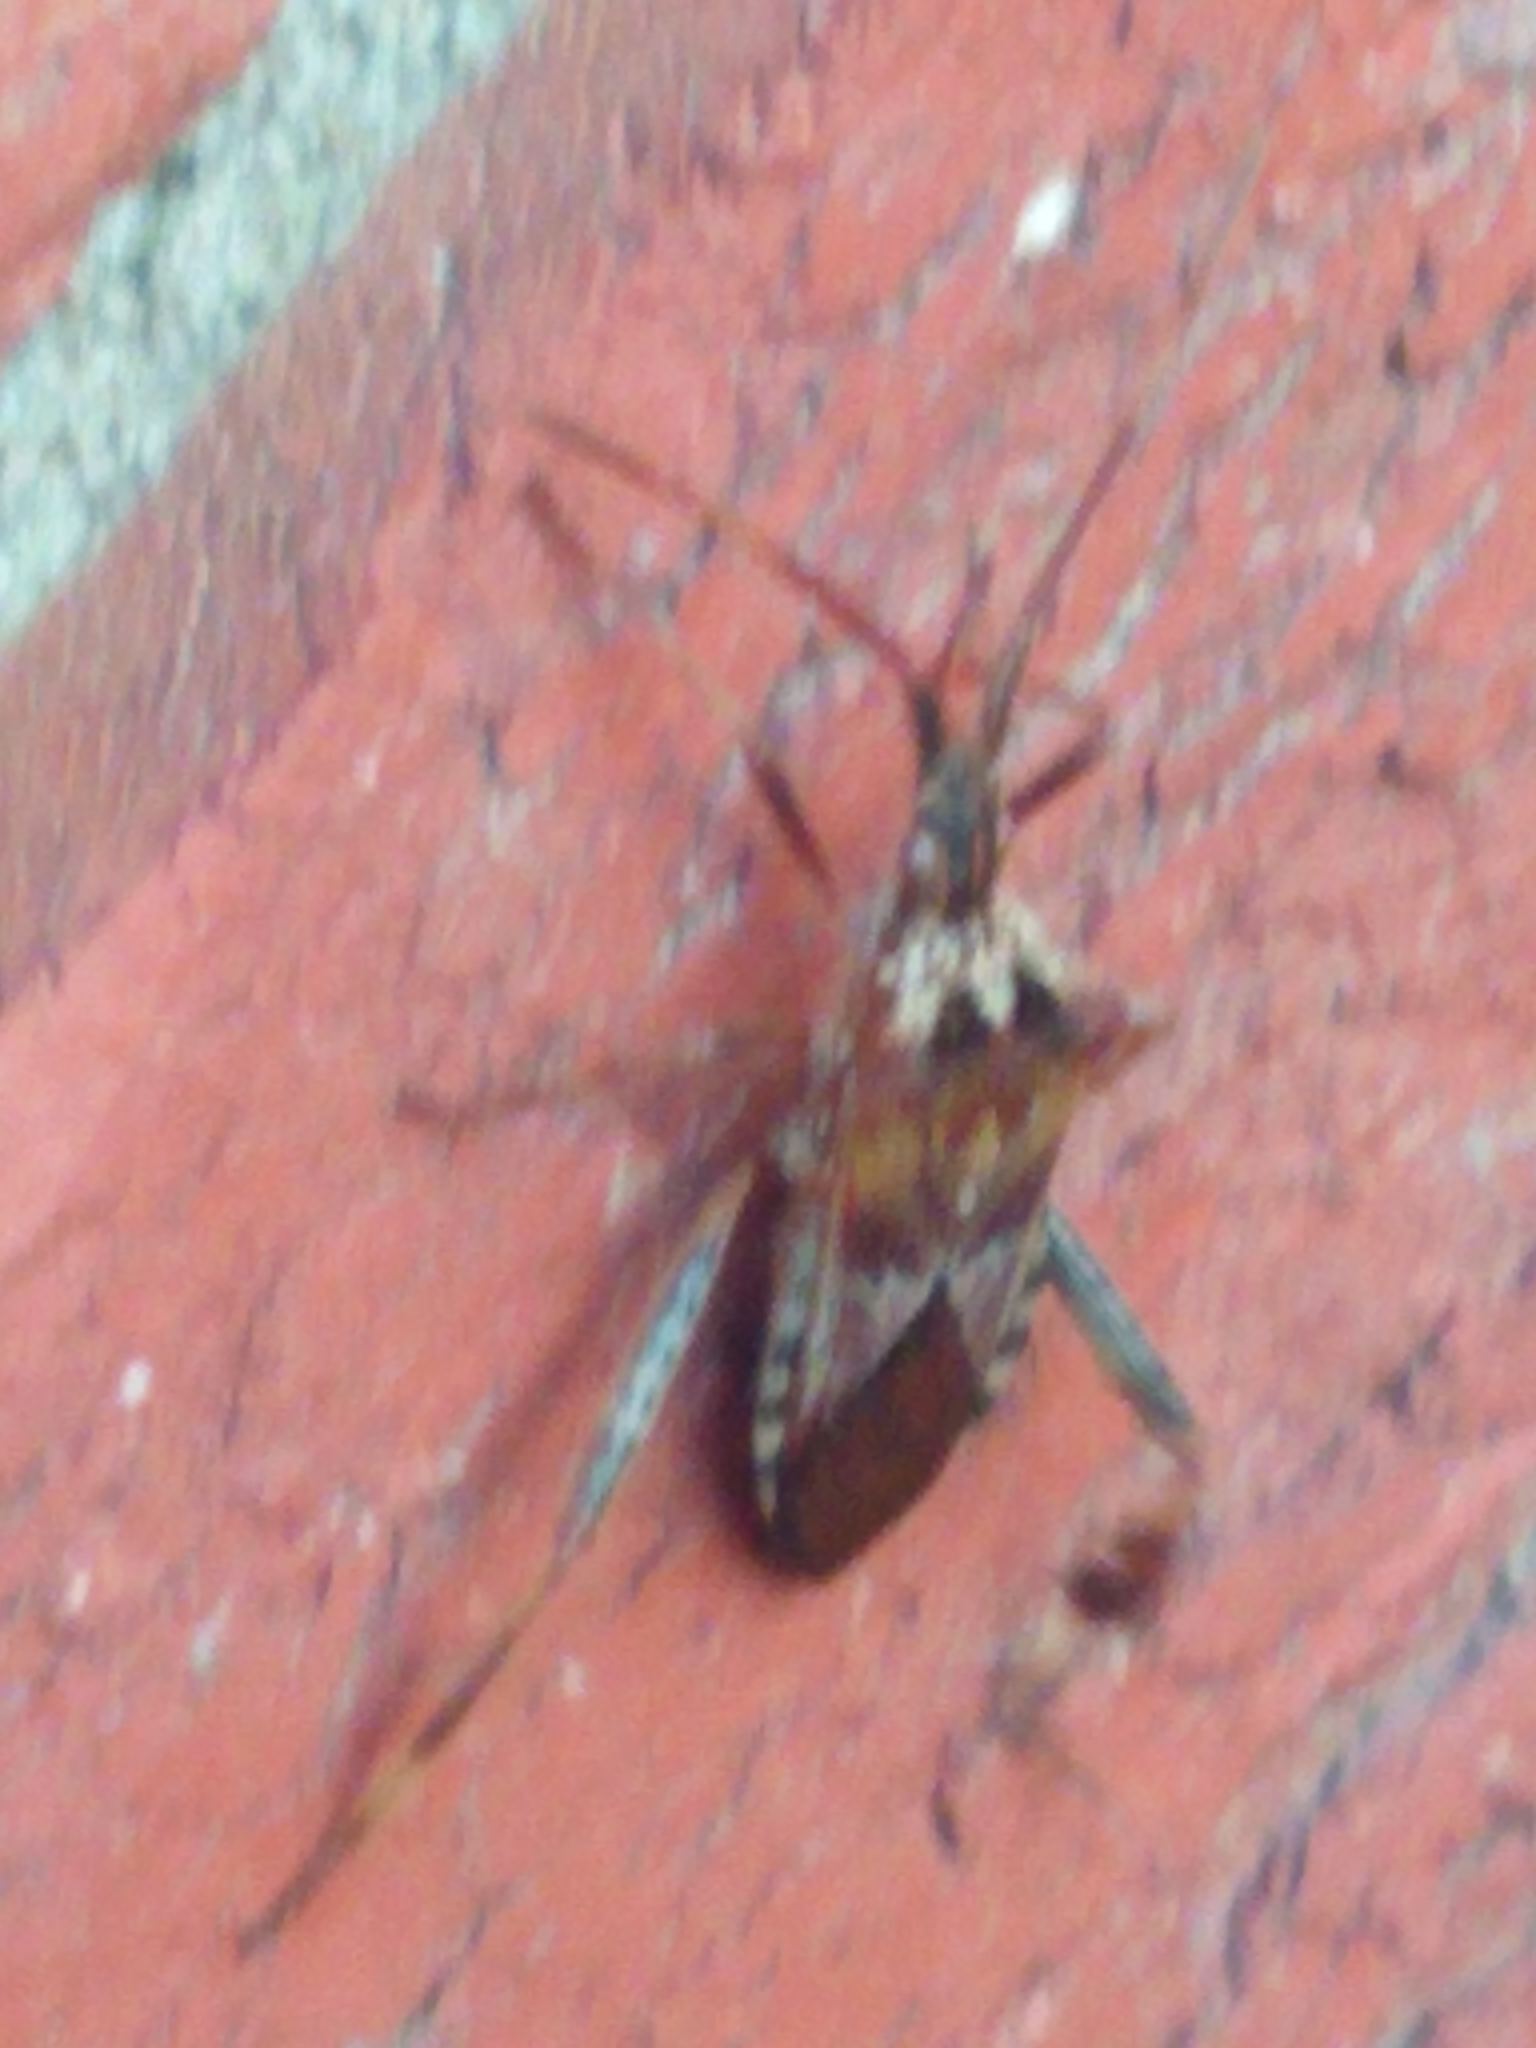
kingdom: Animalia
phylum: Arthropoda
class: Insecta
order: Hemiptera
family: Coreidae
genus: Leptoglossus
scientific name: Leptoglossus occidentalis
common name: Western conifer-seed bug
